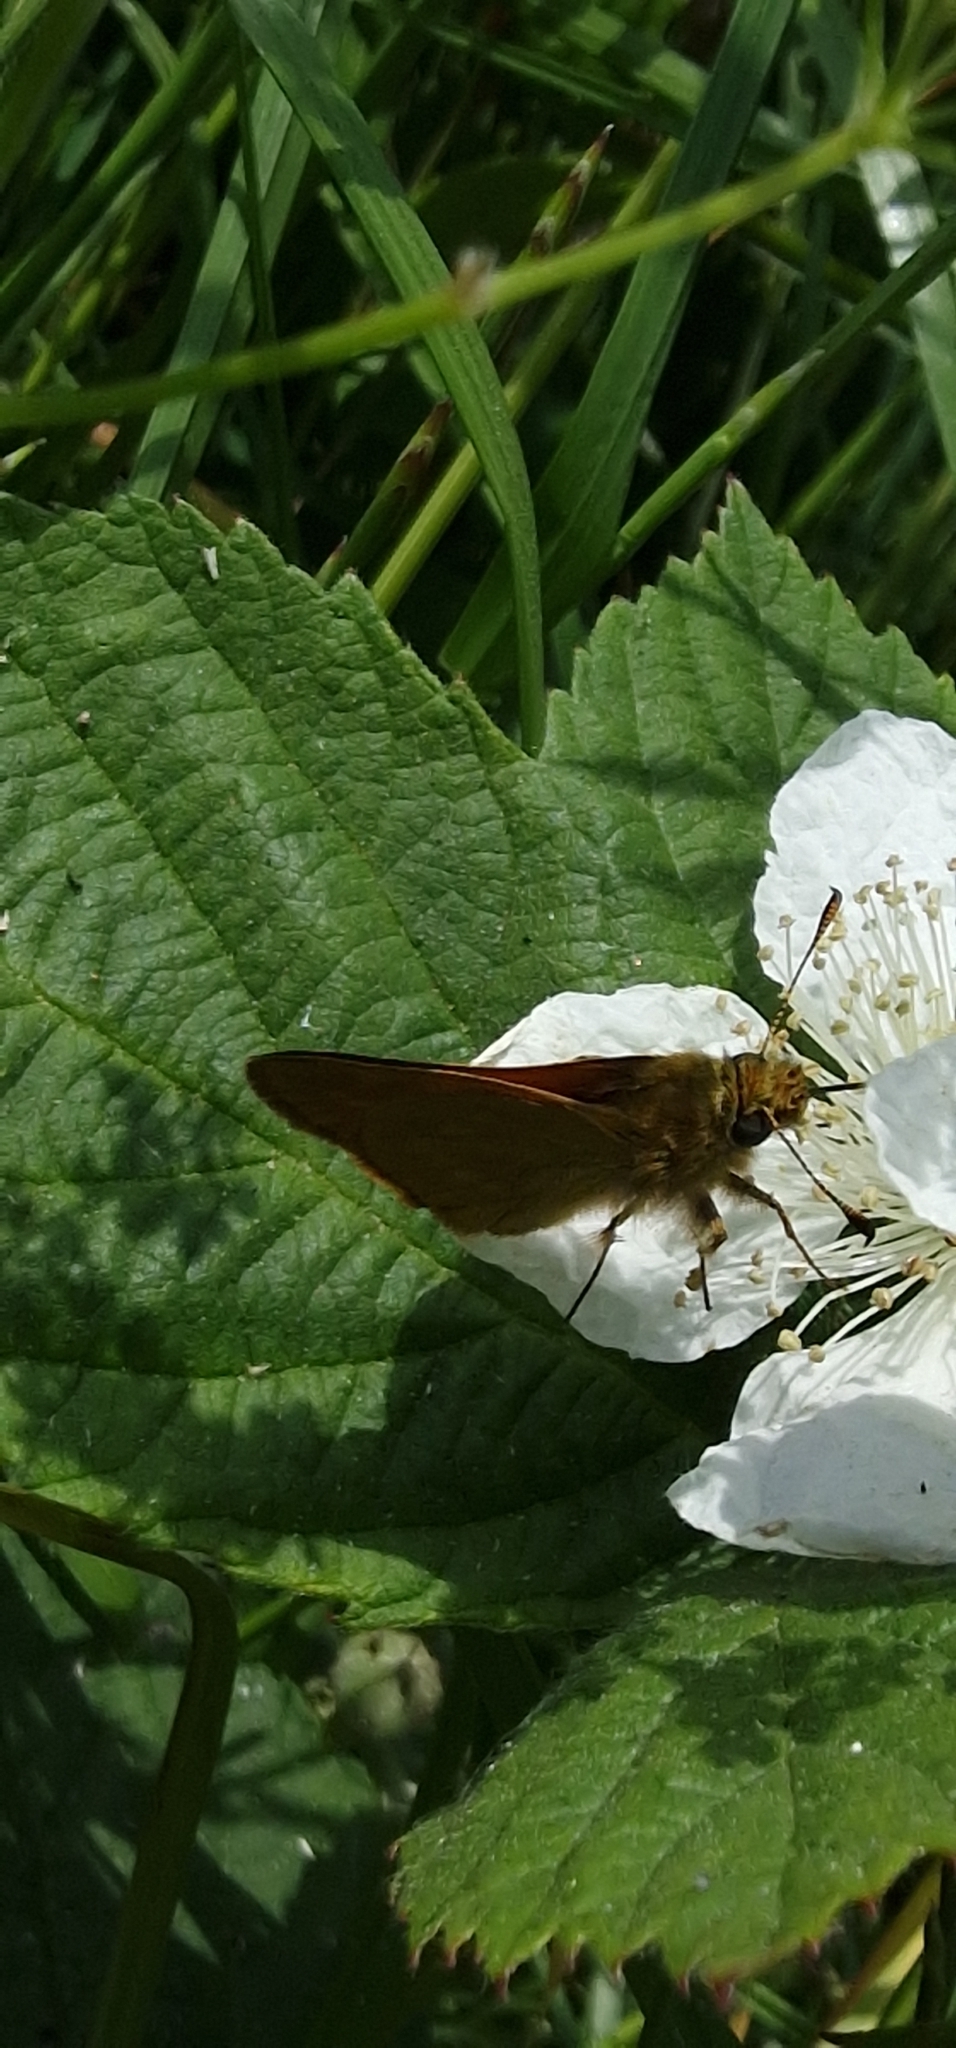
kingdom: Animalia
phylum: Arthropoda
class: Insecta
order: Lepidoptera
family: Hesperiidae
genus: Ochlodes
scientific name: Ochlodes venata
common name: Large skipper
